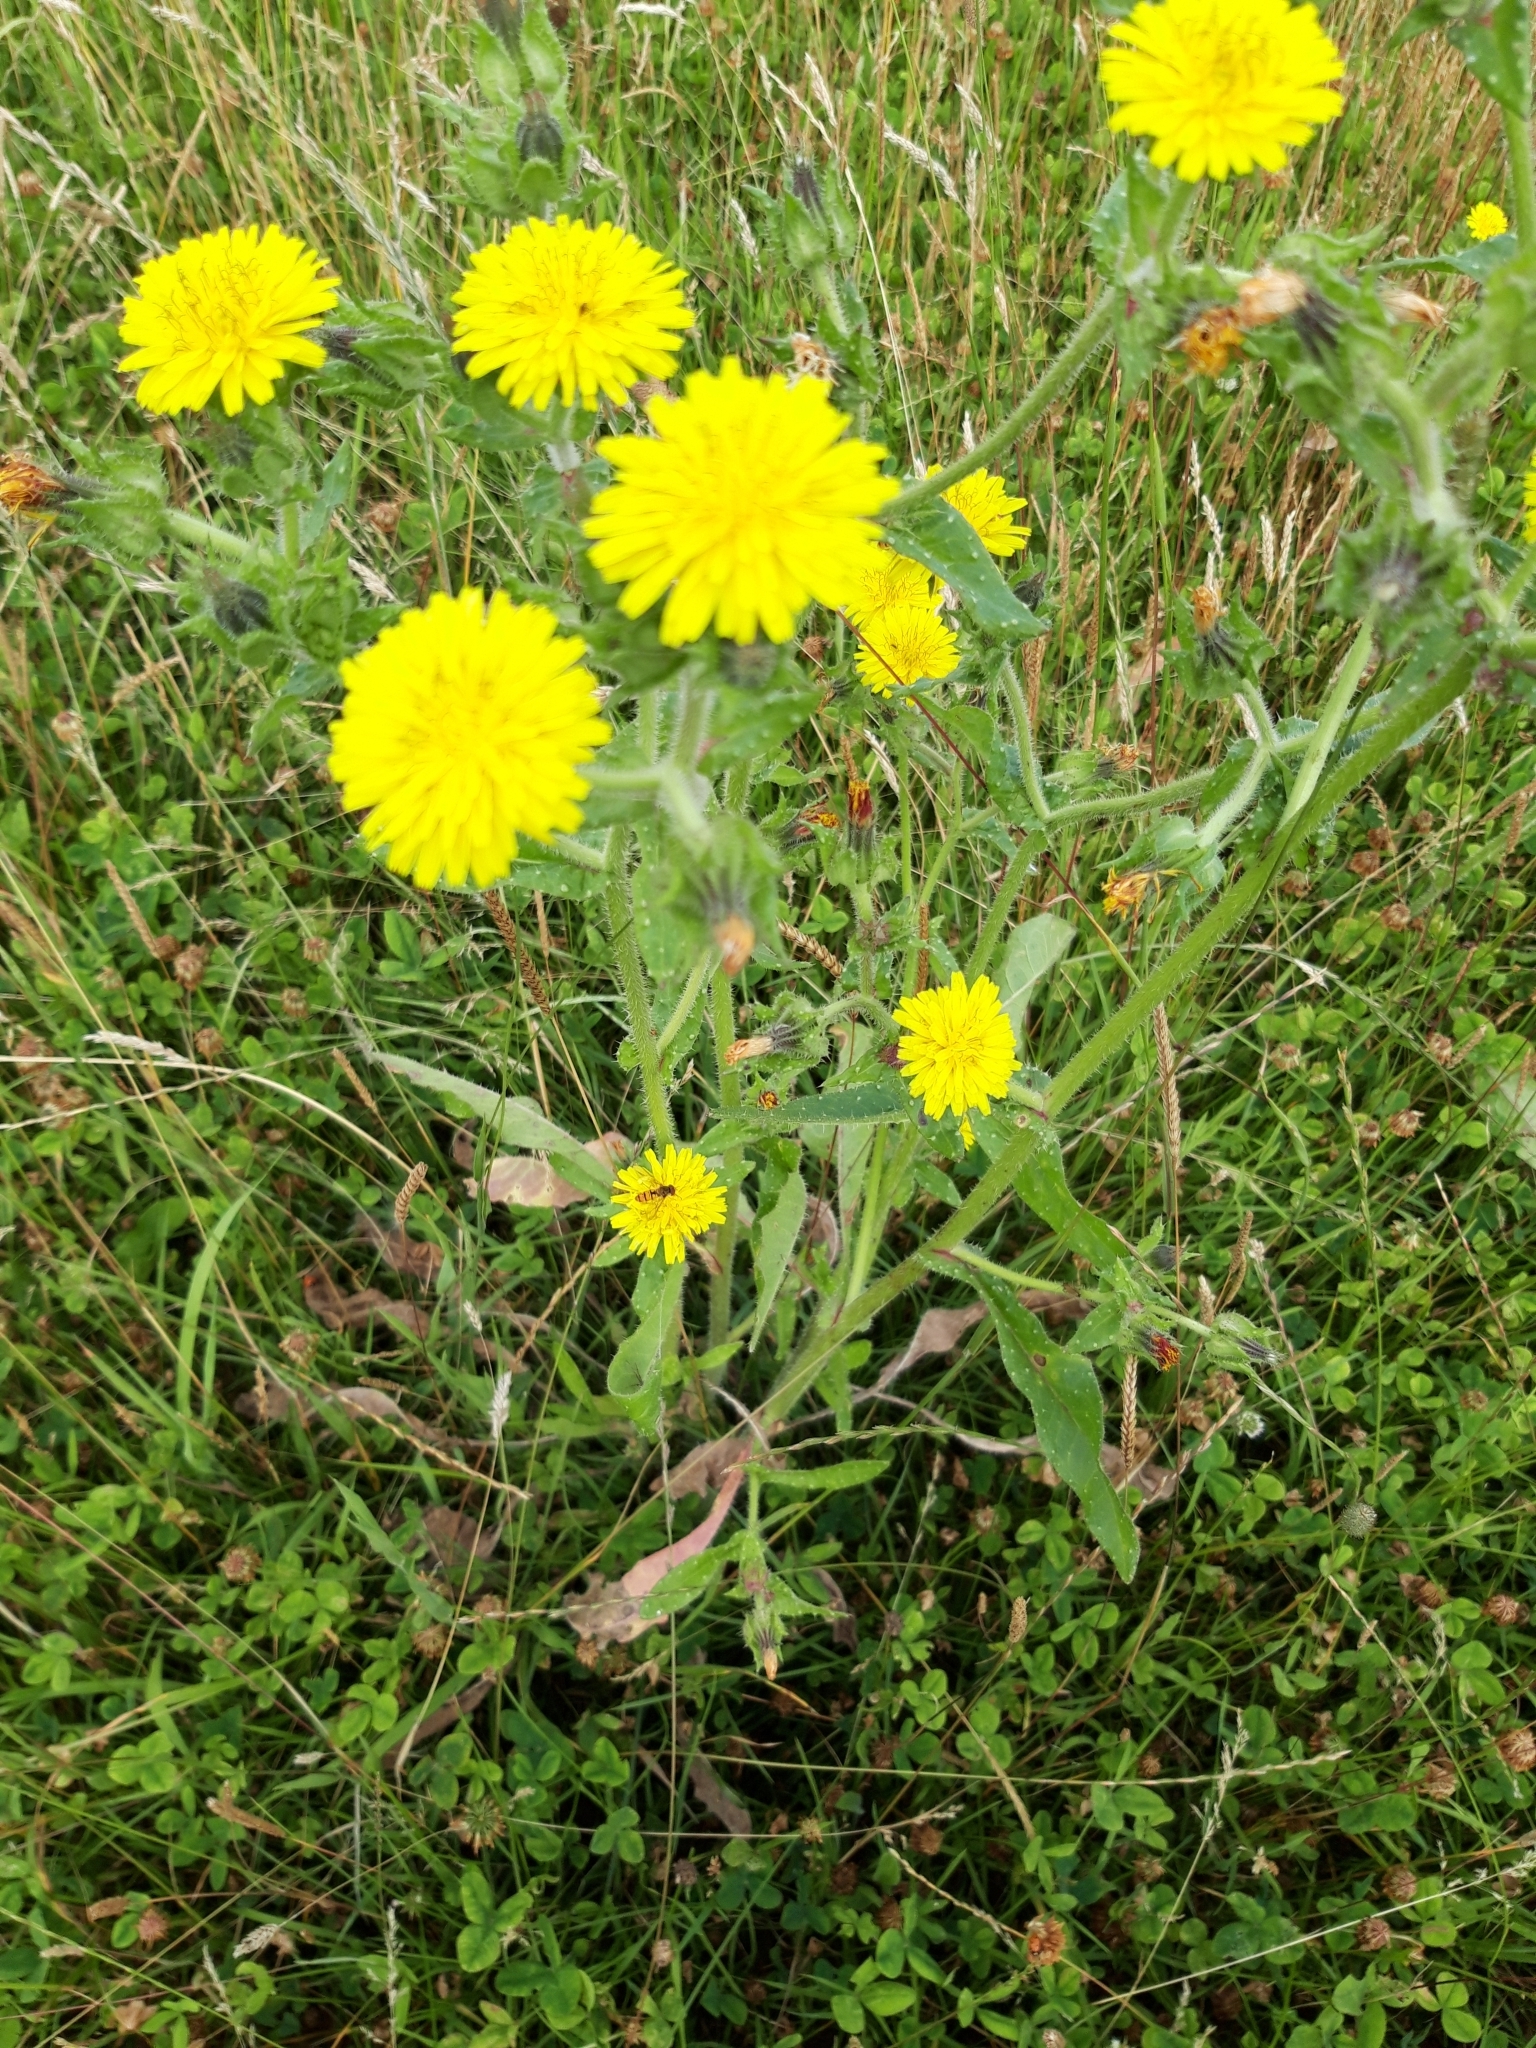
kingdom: Plantae
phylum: Tracheophyta
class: Magnoliopsida
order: Asterales
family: Asteraceae
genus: Helminthotheca
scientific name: Helminthotheca echioides
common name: Ox-tongue
